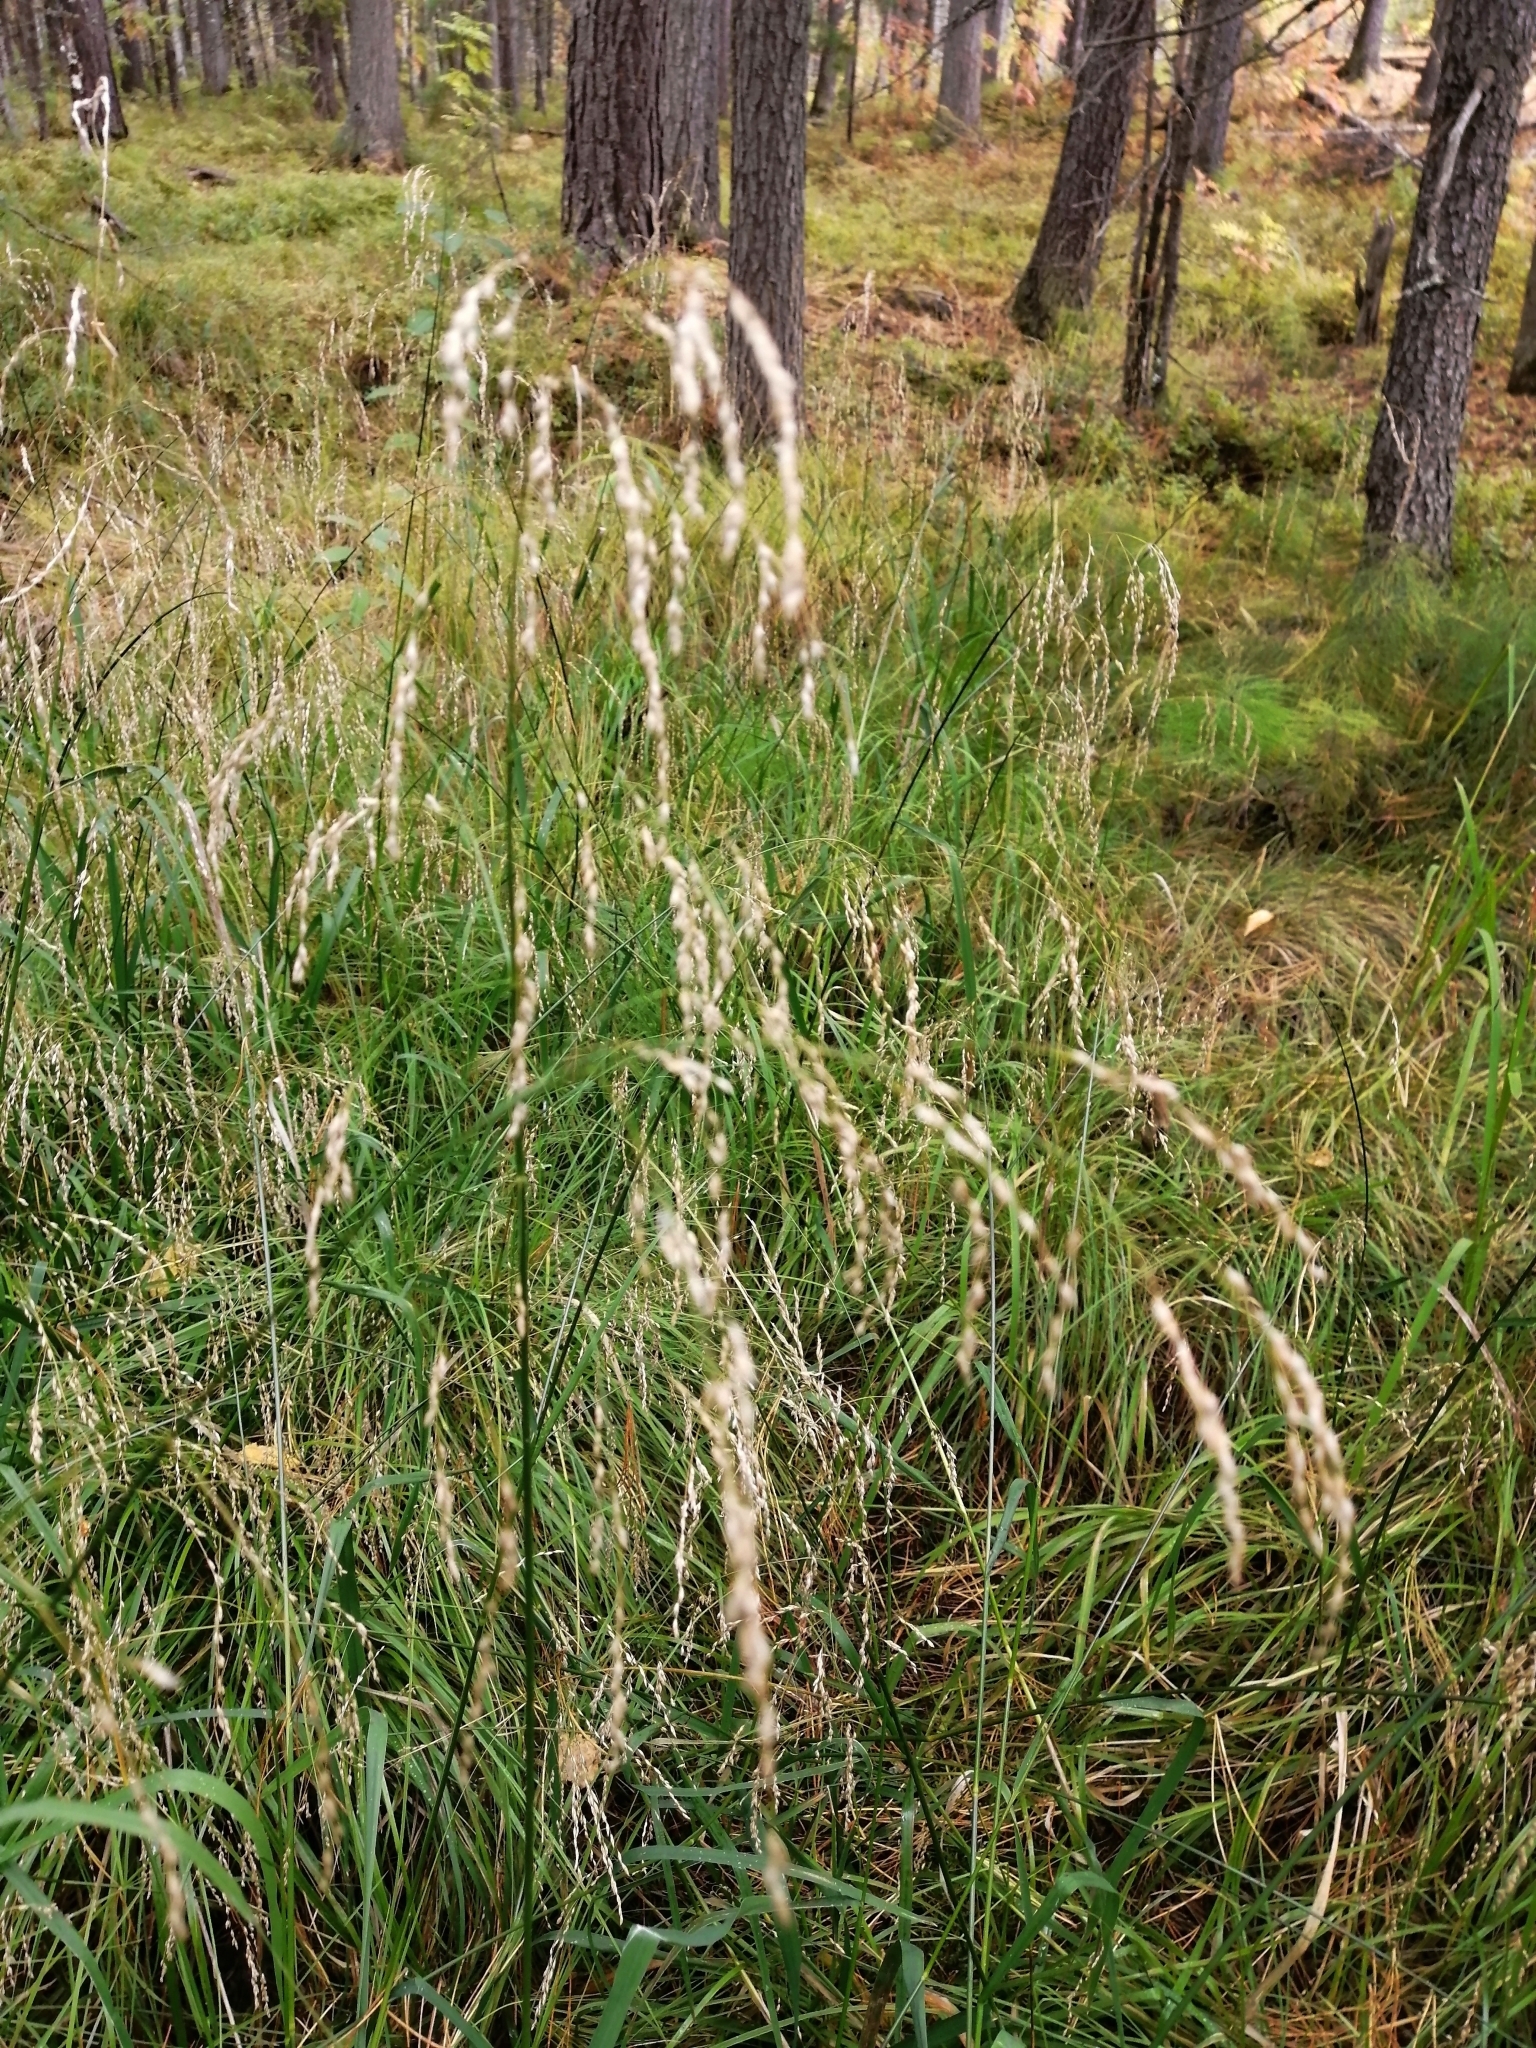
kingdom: Plantae
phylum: Tracheophyta
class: Liliopsida
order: Poales
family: Poaceae
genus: Deschampsia
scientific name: Deschampsia cespitosa
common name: Tufted hair-grass
